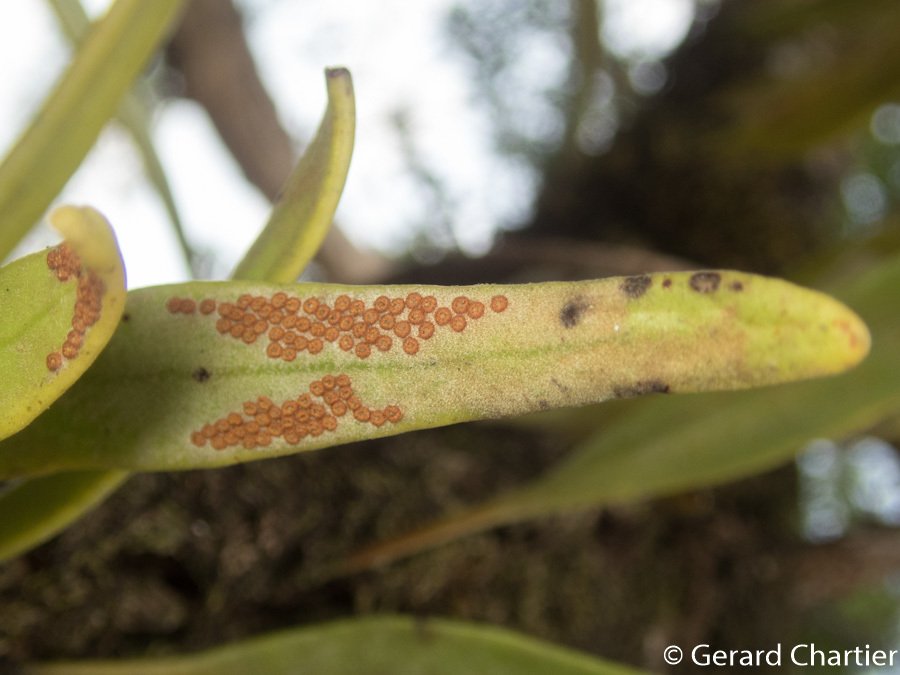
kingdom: Plantae
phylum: Tracheophyta
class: Polypodiopsida
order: Polypodiales
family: Polypodiaceae
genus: Pyrrosia
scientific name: Pyrrosia longifolia
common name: Long-leaved felt fern
